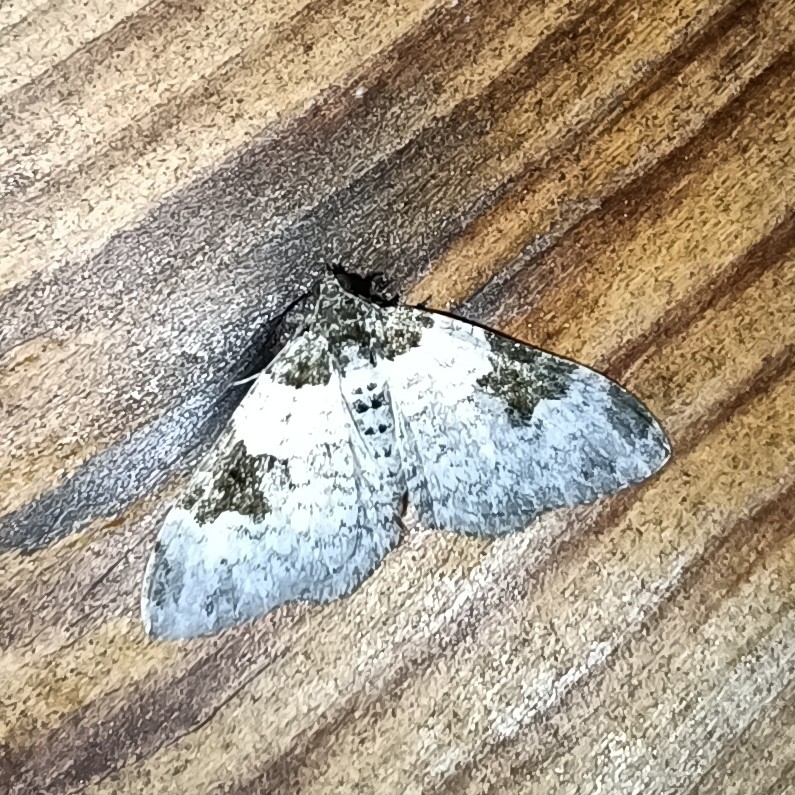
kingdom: Animalia
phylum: Arthropoda
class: Insecta
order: Lepidoptera
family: Geometridae
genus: Xanthorhoe
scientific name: Xanthorhoe fluctuata
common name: Garden carpet
